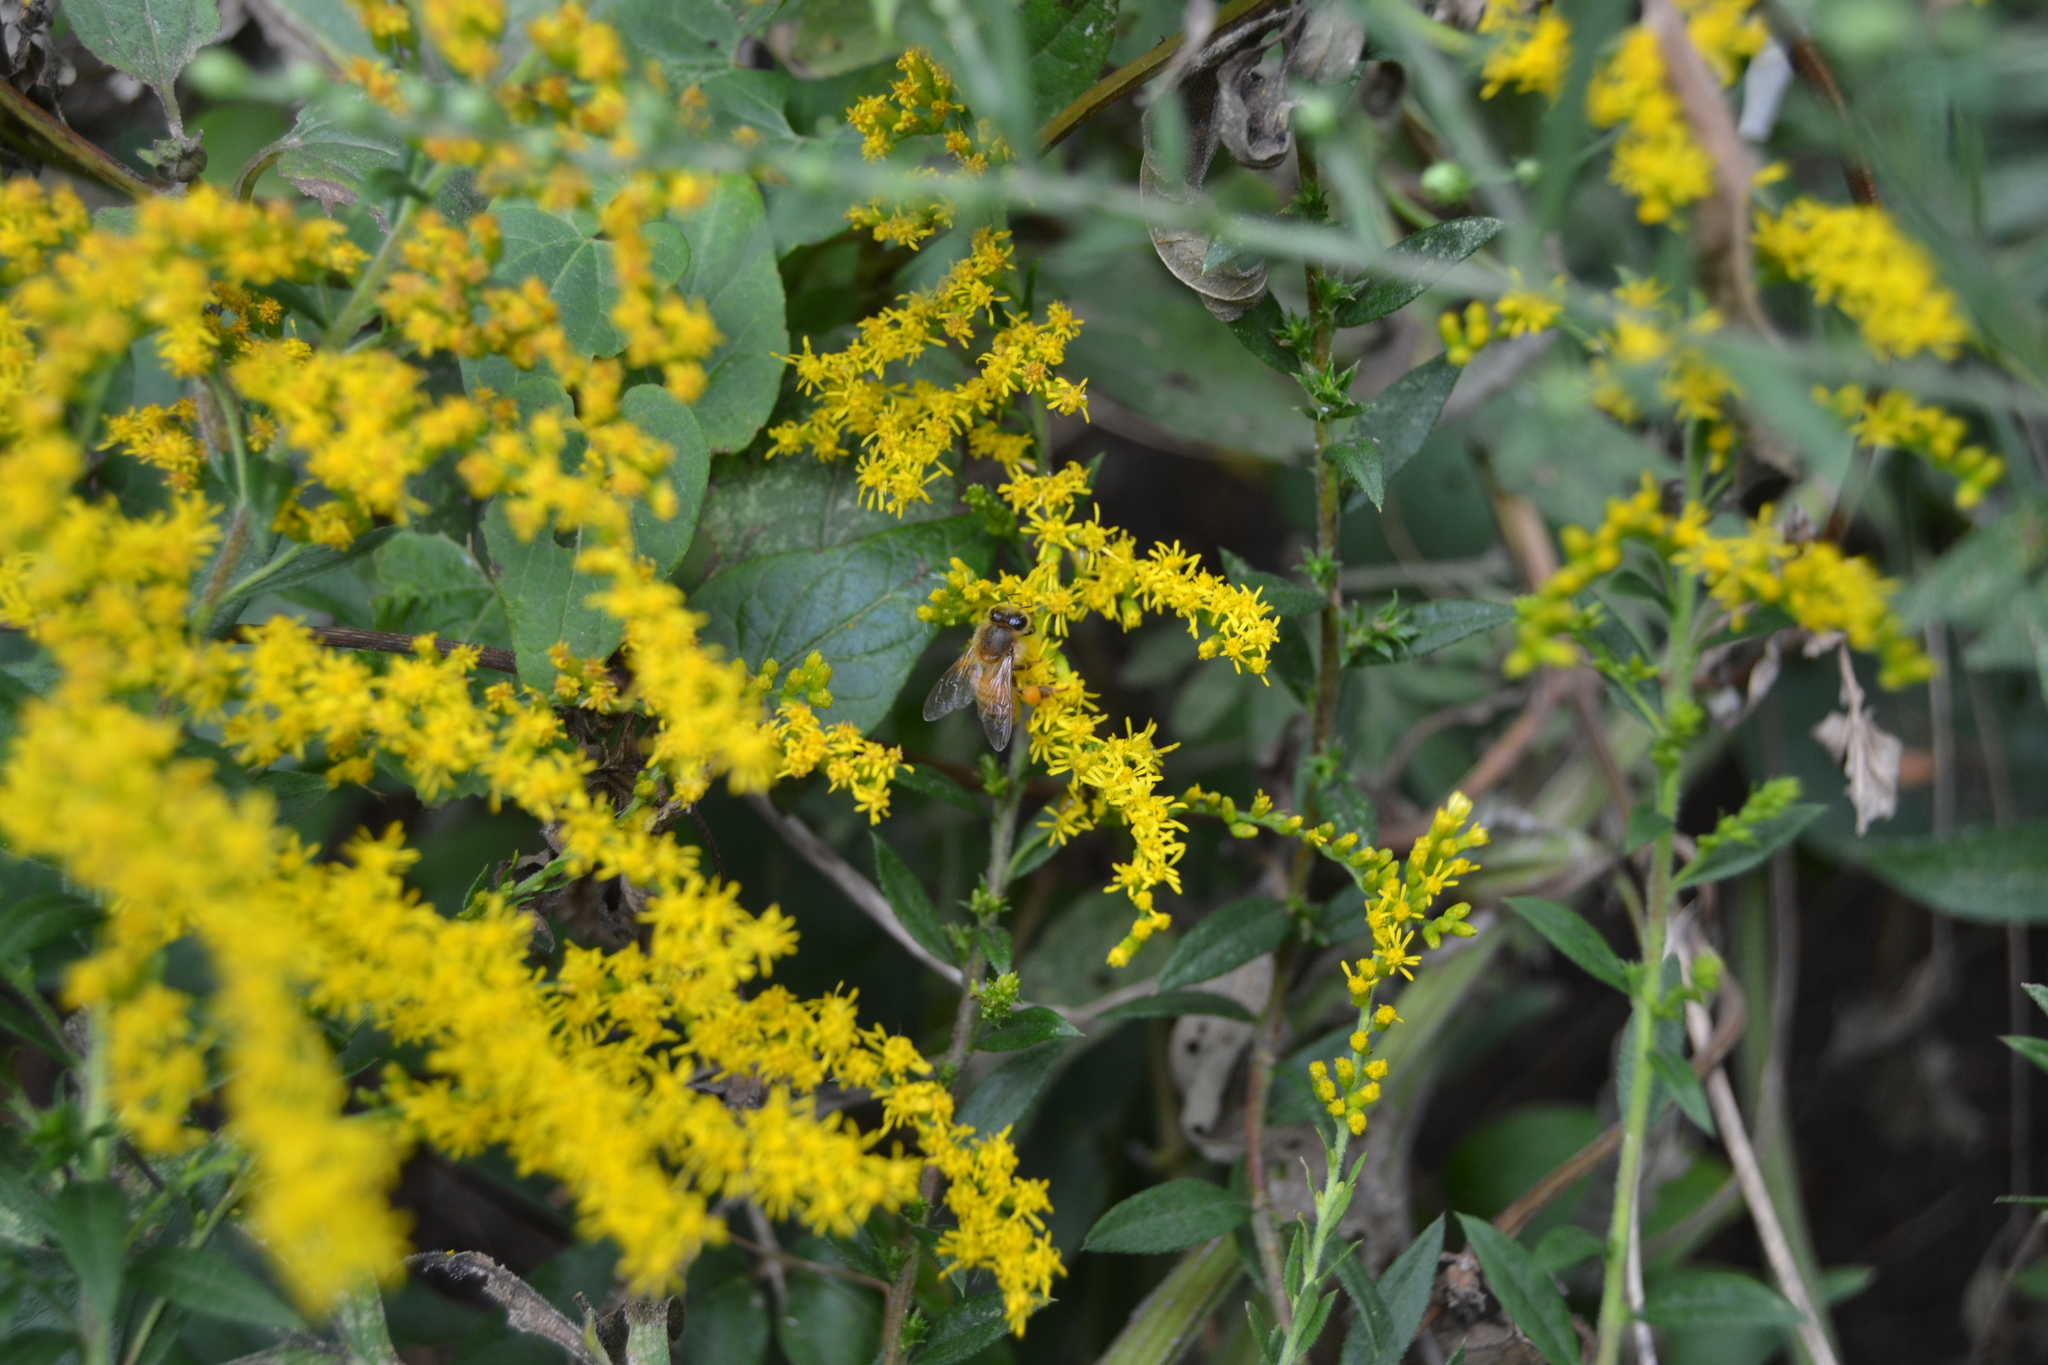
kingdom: Animalia
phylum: Arthropoda
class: Insecta
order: Hymenoptera
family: Apidae
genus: Apis
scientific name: Apis mellifera
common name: Honey bee
